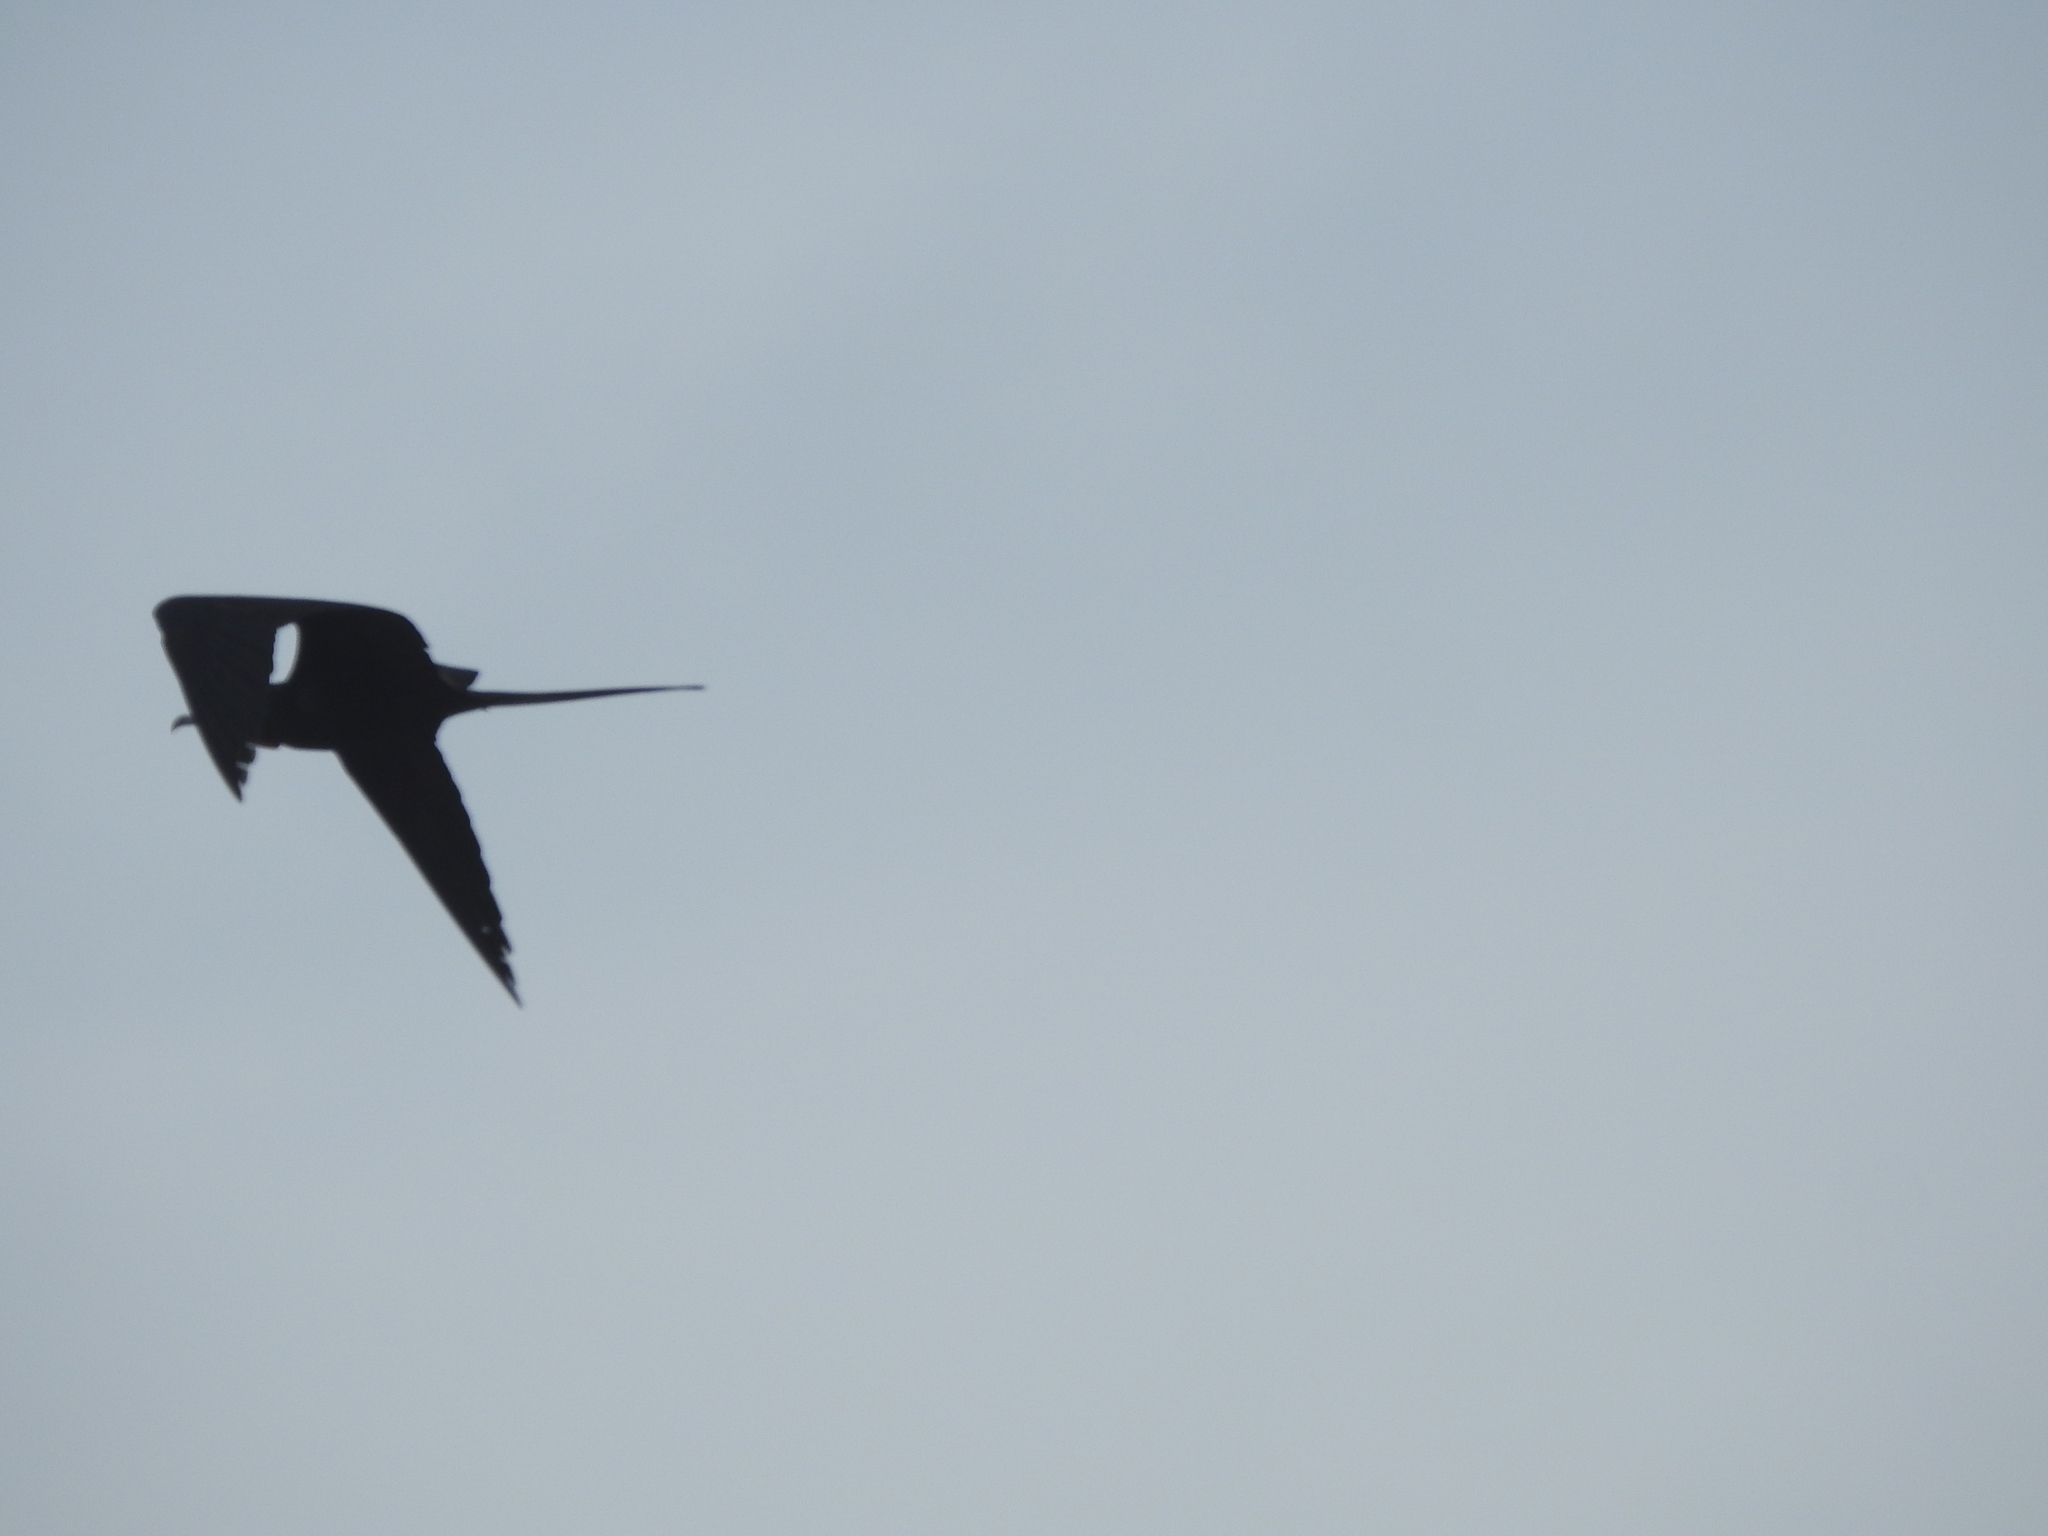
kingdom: Animalia
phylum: Chordata
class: Aves
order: Suliformes
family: Fregatidae
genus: Fregata
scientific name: Fregata magnificens
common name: Magnificent frigatebird
